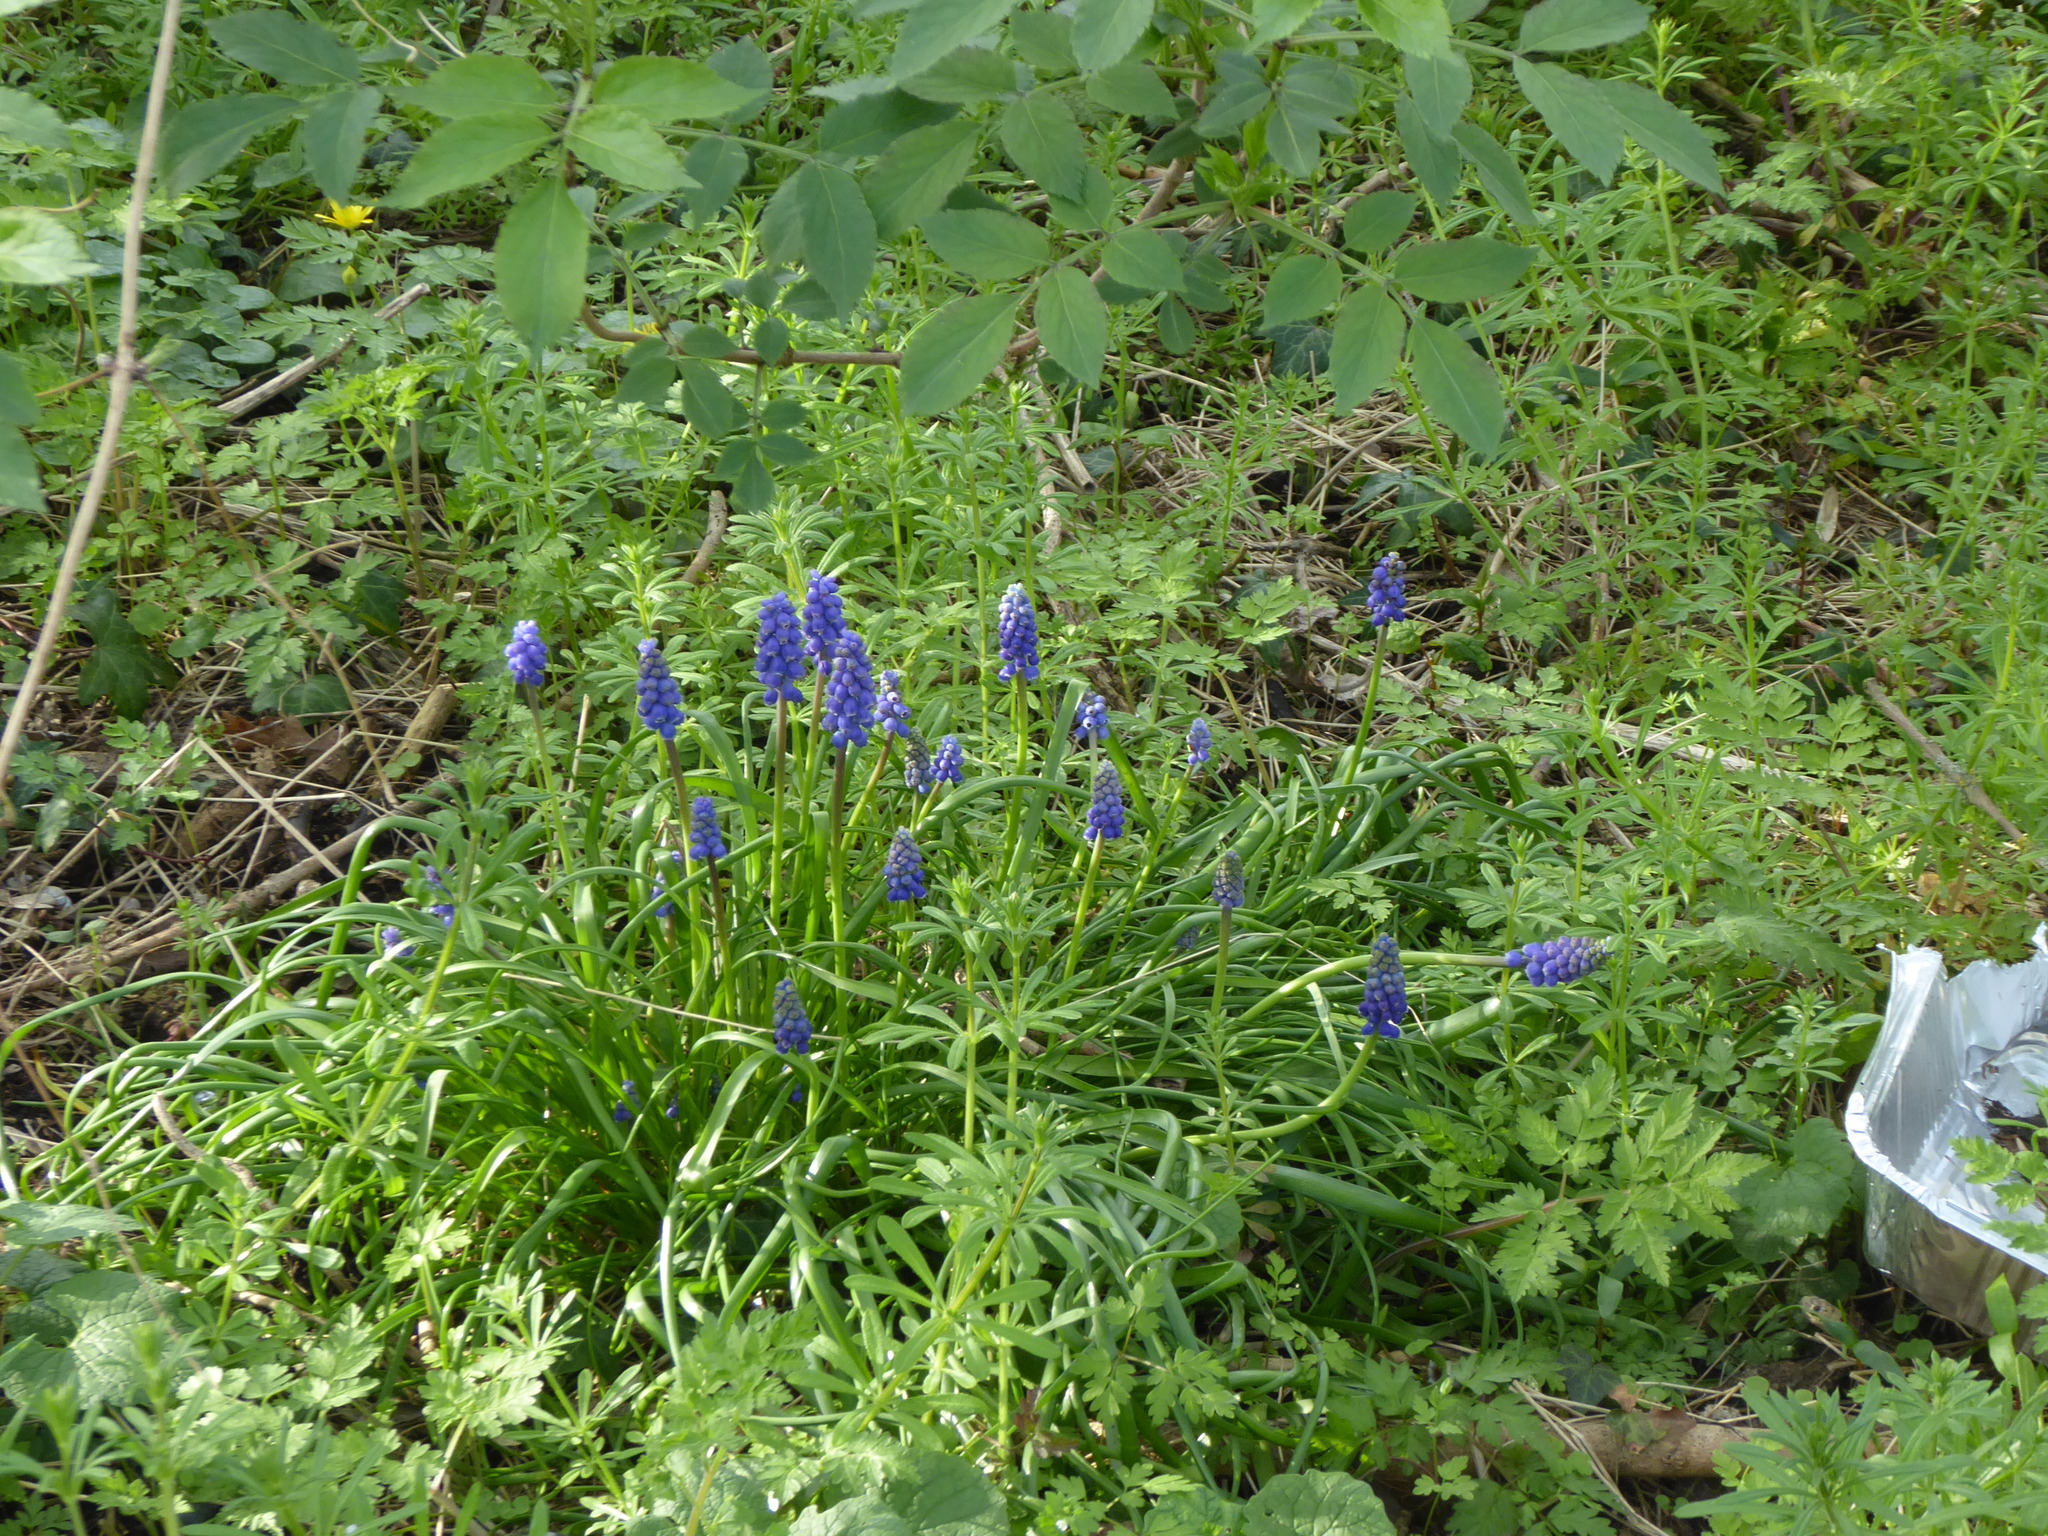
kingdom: Plantae
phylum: Tracheophyta
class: Liliopsida
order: Asparagales
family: Asparagaceae
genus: Muscari
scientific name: Muscari armeniacum
